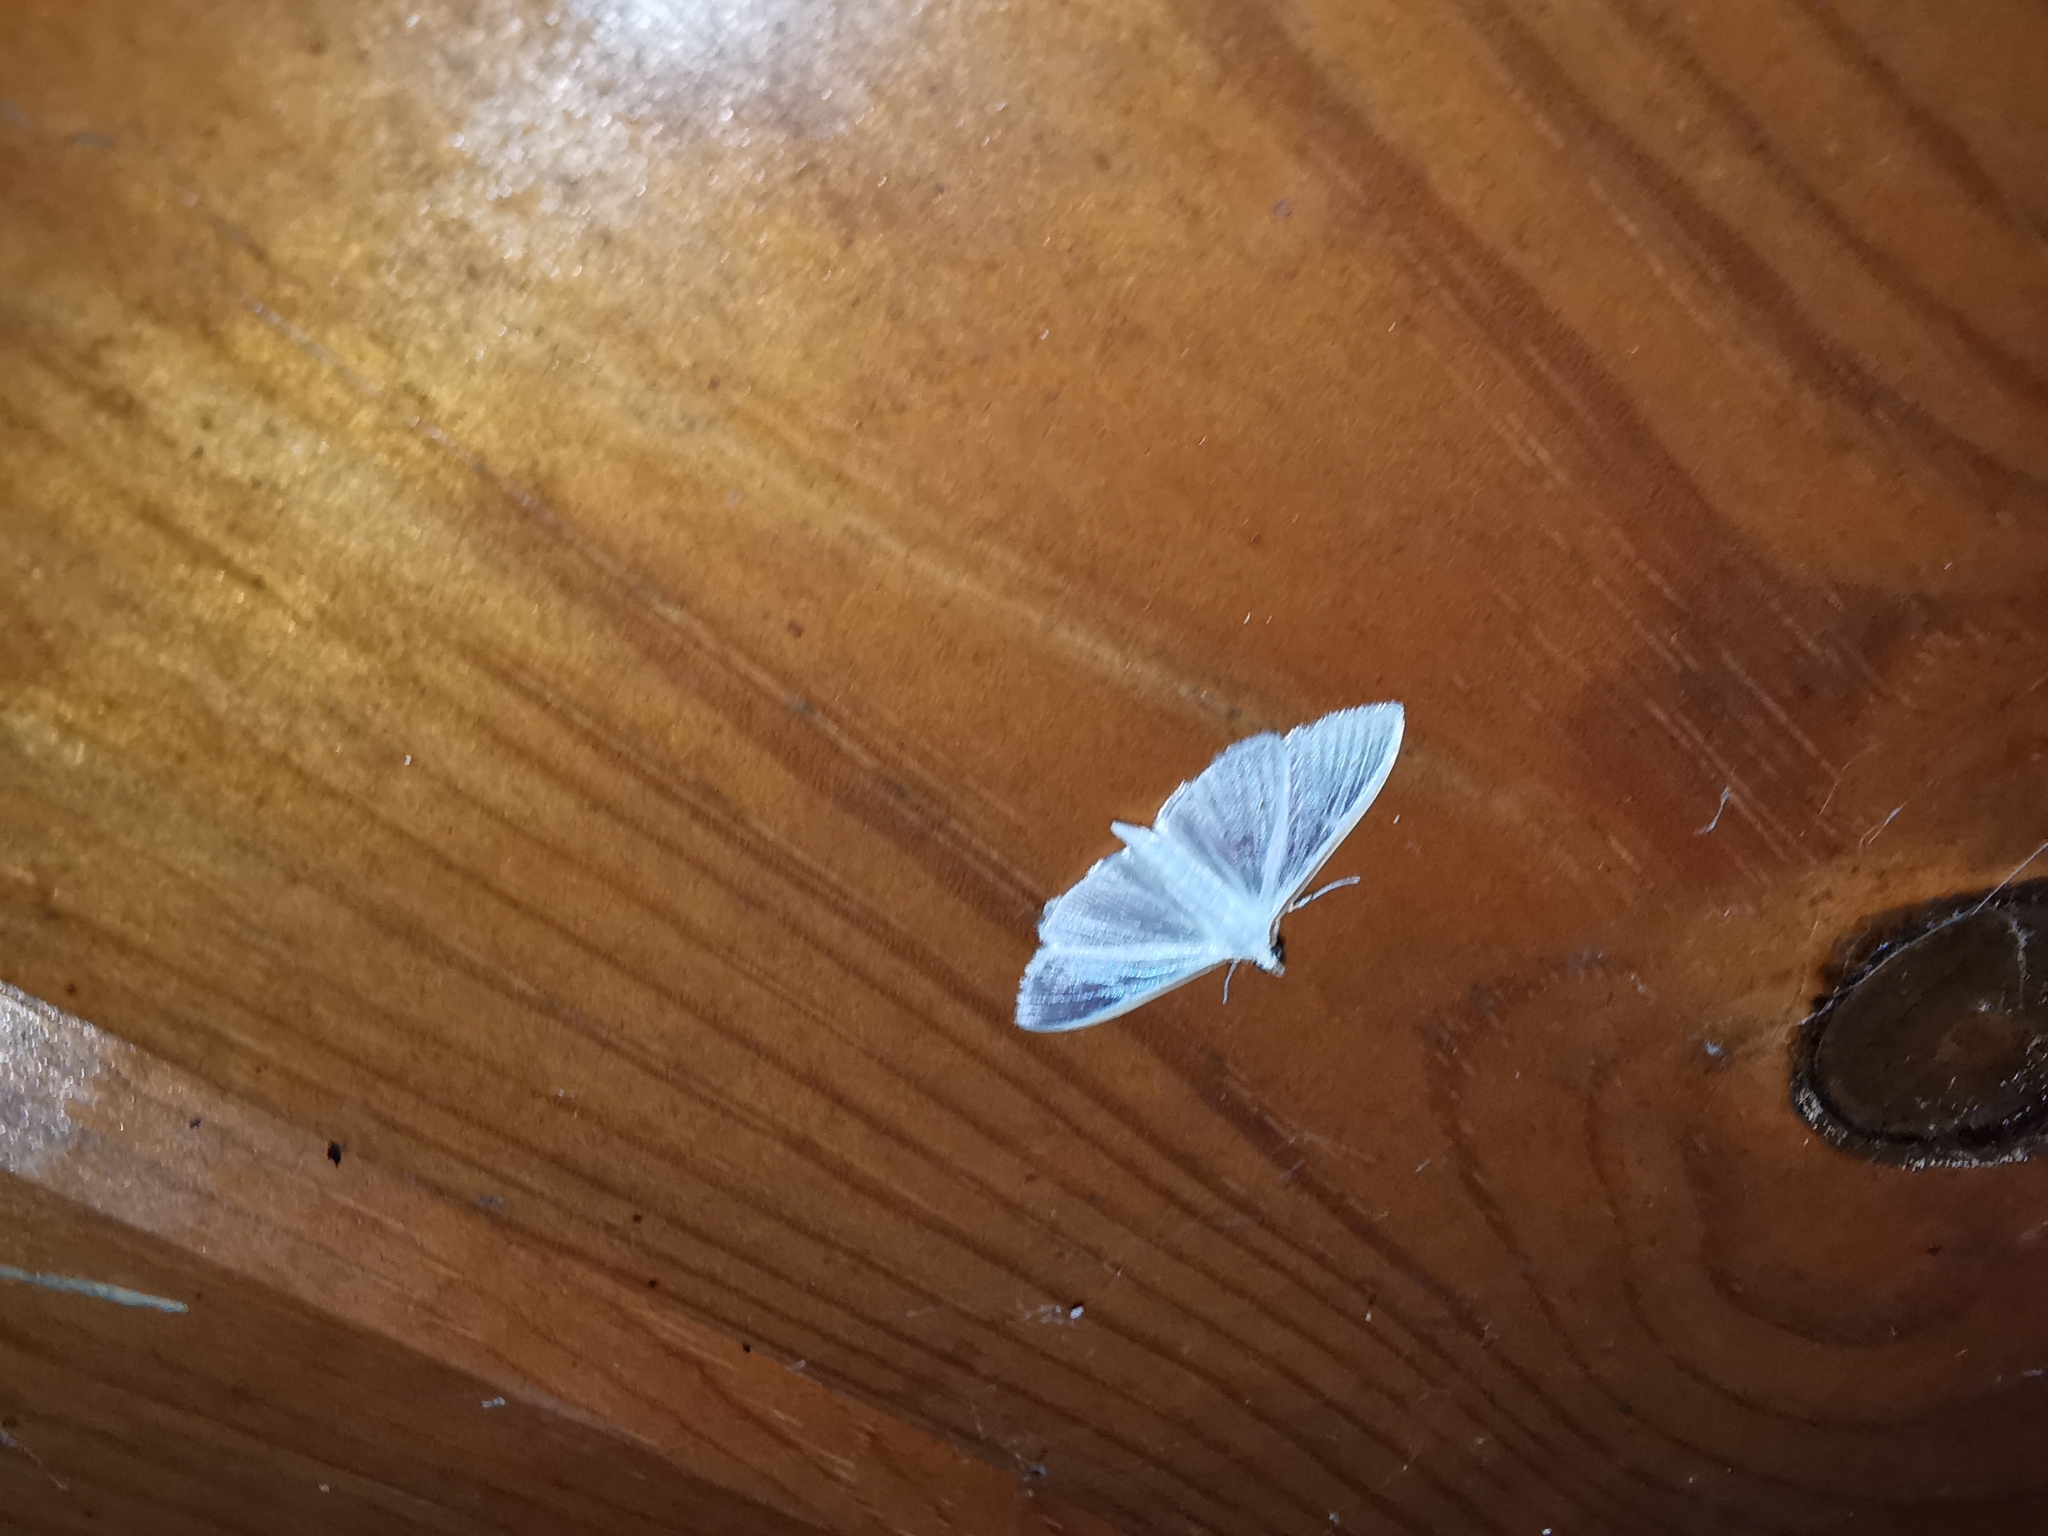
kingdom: Animalia
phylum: Arthropoda
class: Insecta
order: Lepidoptera
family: Crambidae
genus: Palpita
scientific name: Palpita vitrealis
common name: Olive-tree pearl
